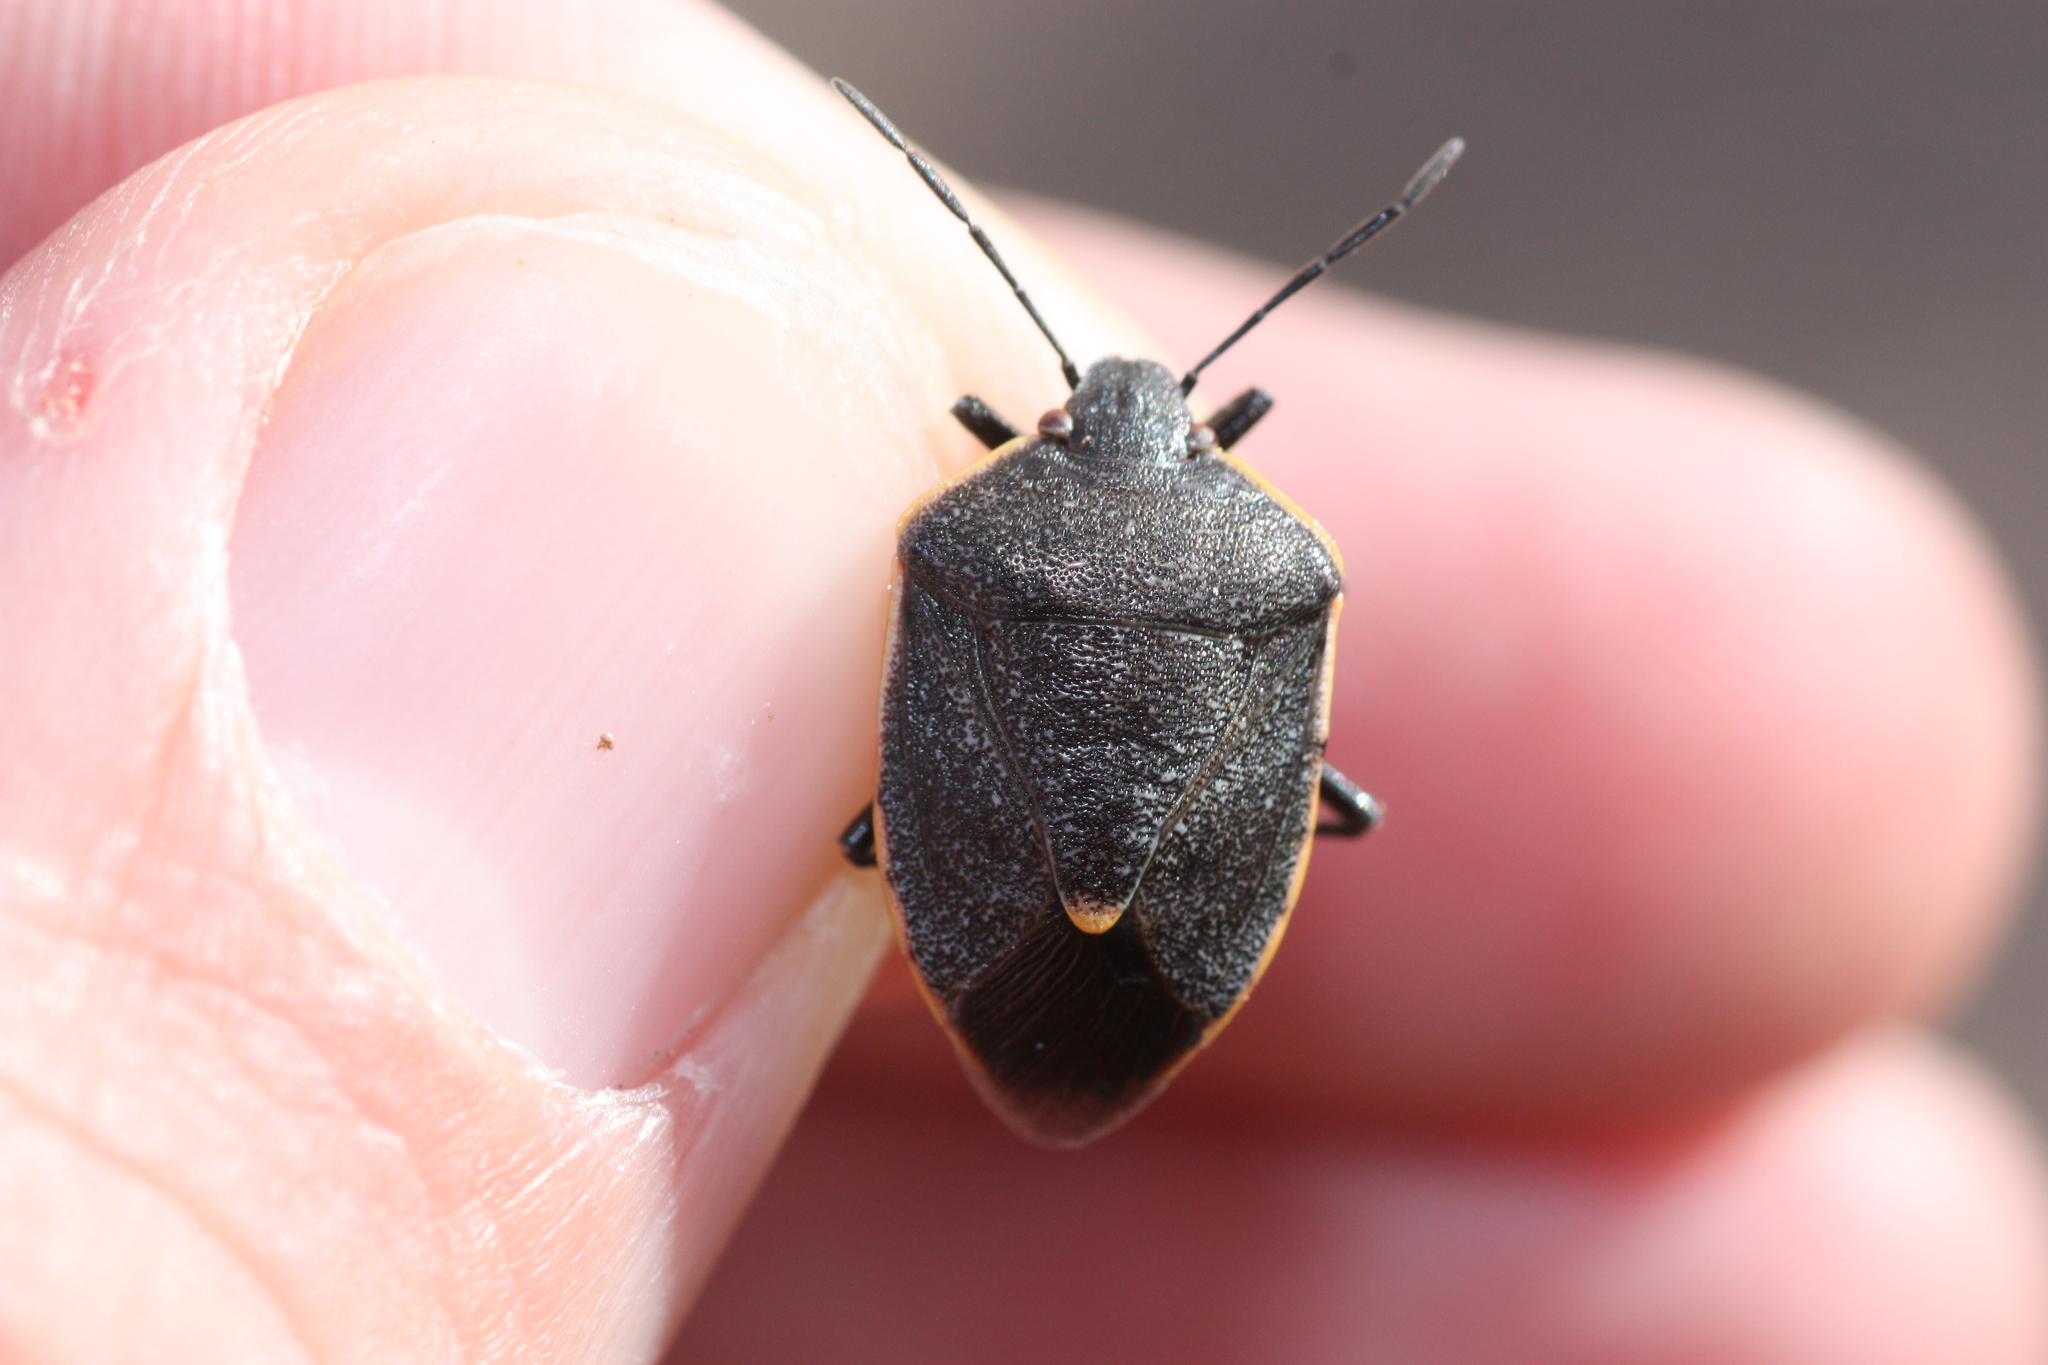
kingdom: Animalia
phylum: Arthropoda
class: Insecta
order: Hemiptera
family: Pentatomidae
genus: Chlorochroa
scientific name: Chlorochroa ligata
